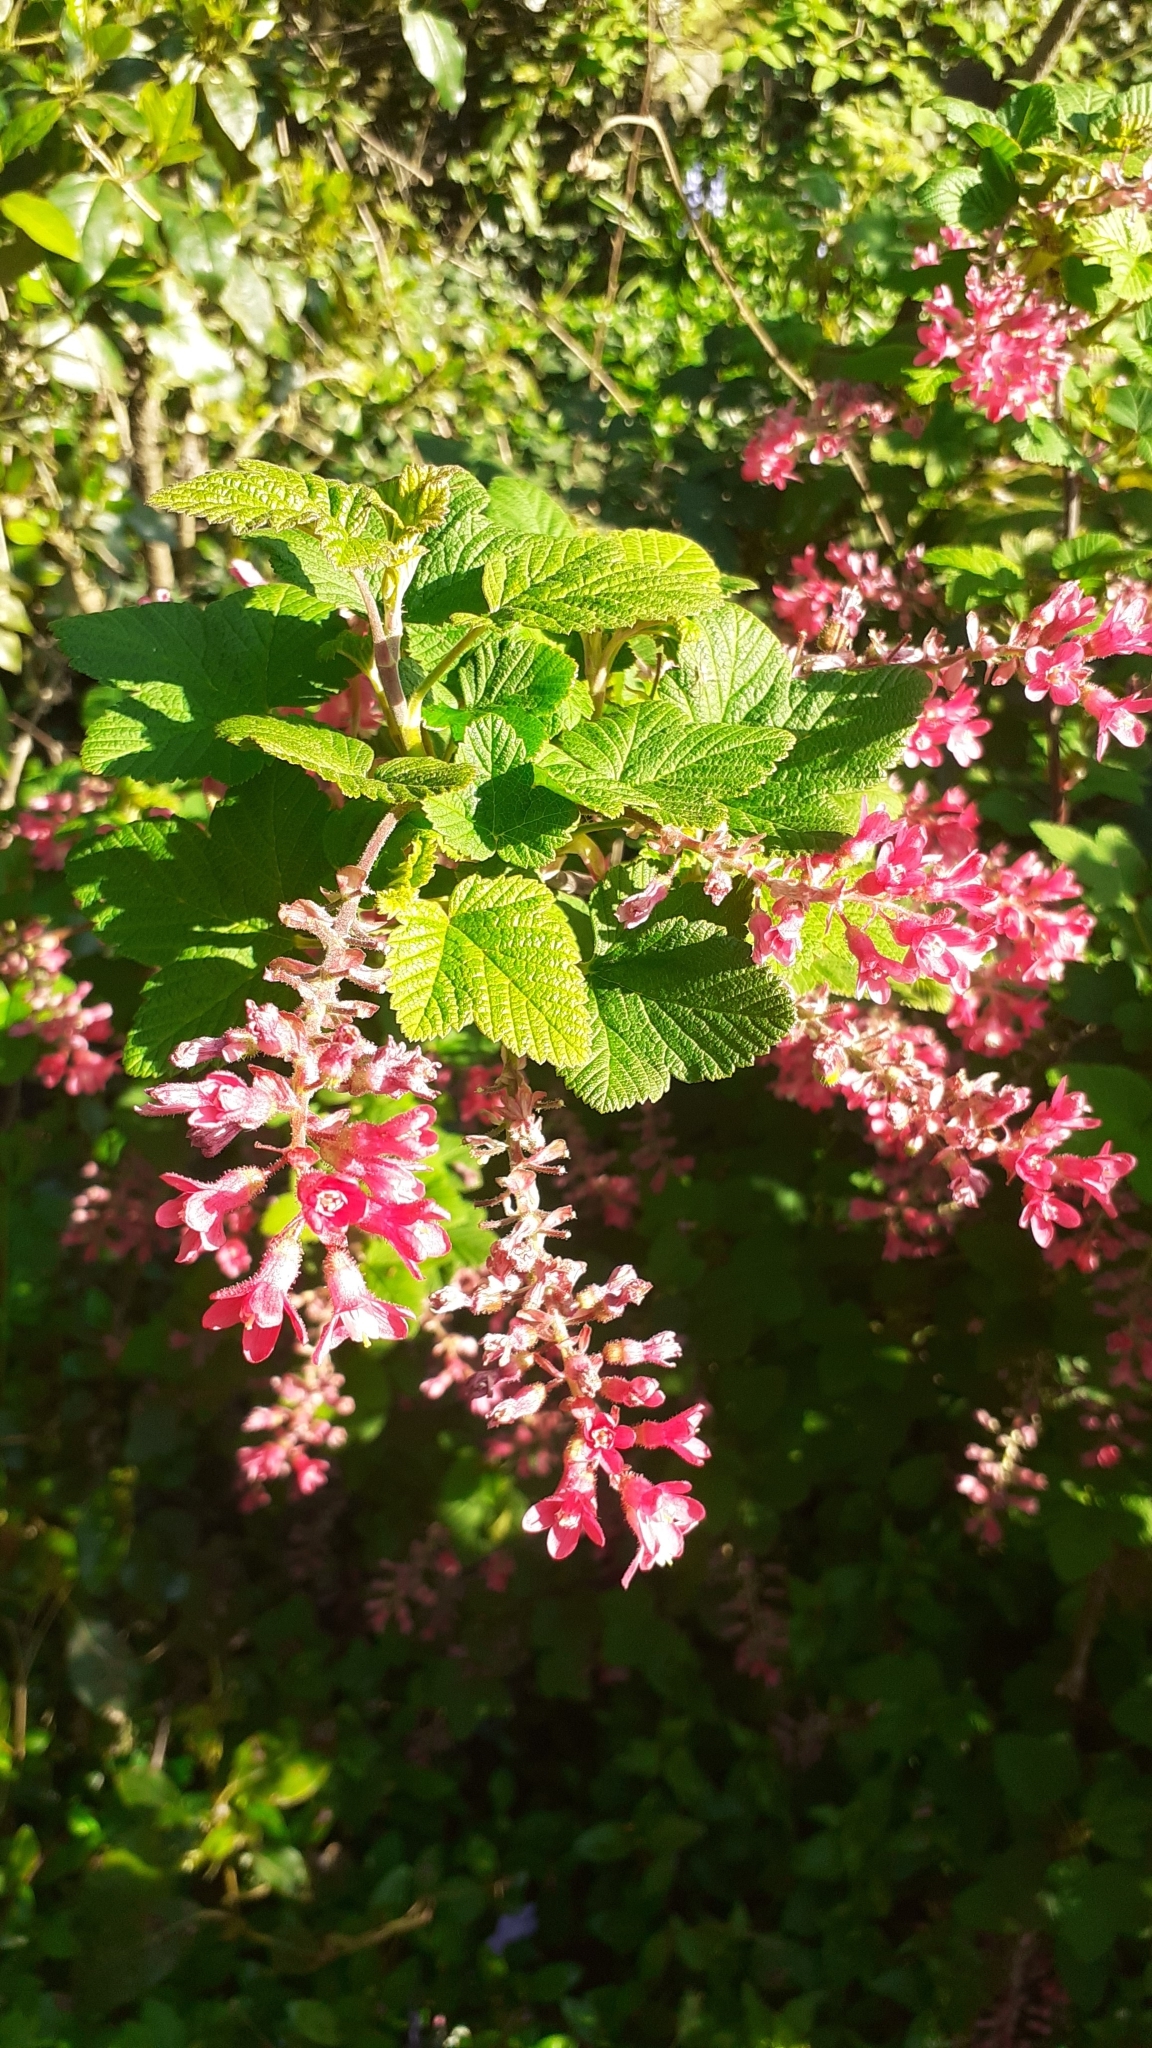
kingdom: Plantae
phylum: Tracheophyta
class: Magnoliopsida
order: Saxifragales
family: Grossulariaceae
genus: Ribes
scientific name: Ribes sanguineum
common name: Flowering currant
